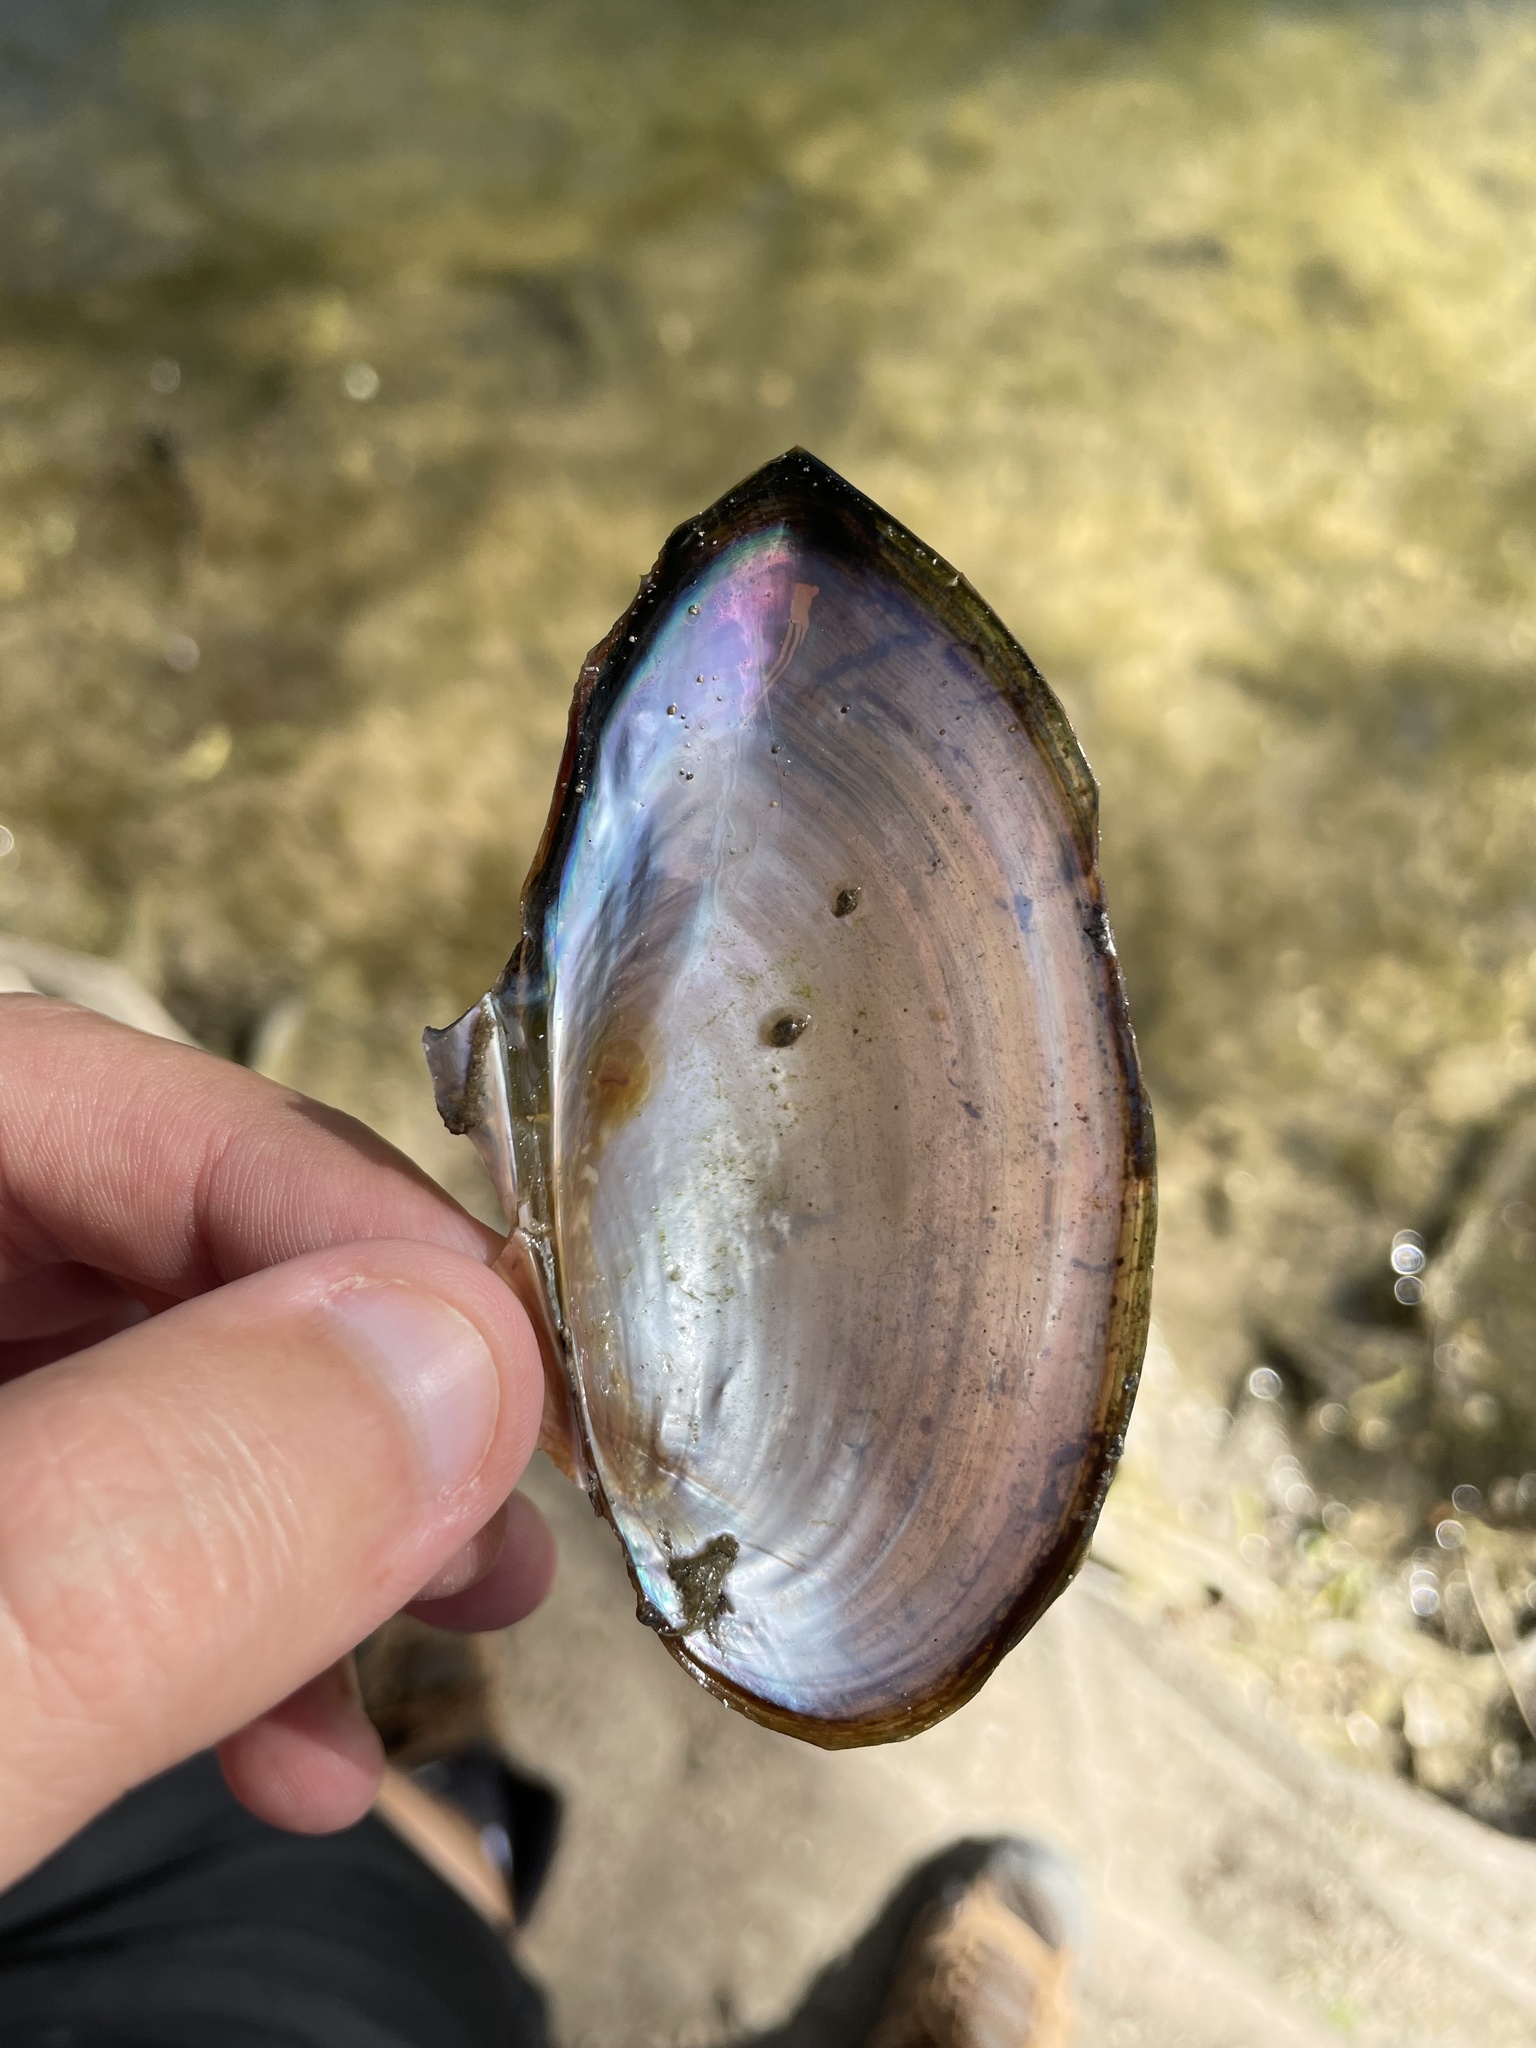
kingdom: Animalia
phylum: Mollusca
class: Bivalvia
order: Unionida
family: Unionidae
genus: Utterbackia
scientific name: Utterbackia imbecillis
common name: Paper pondshell
